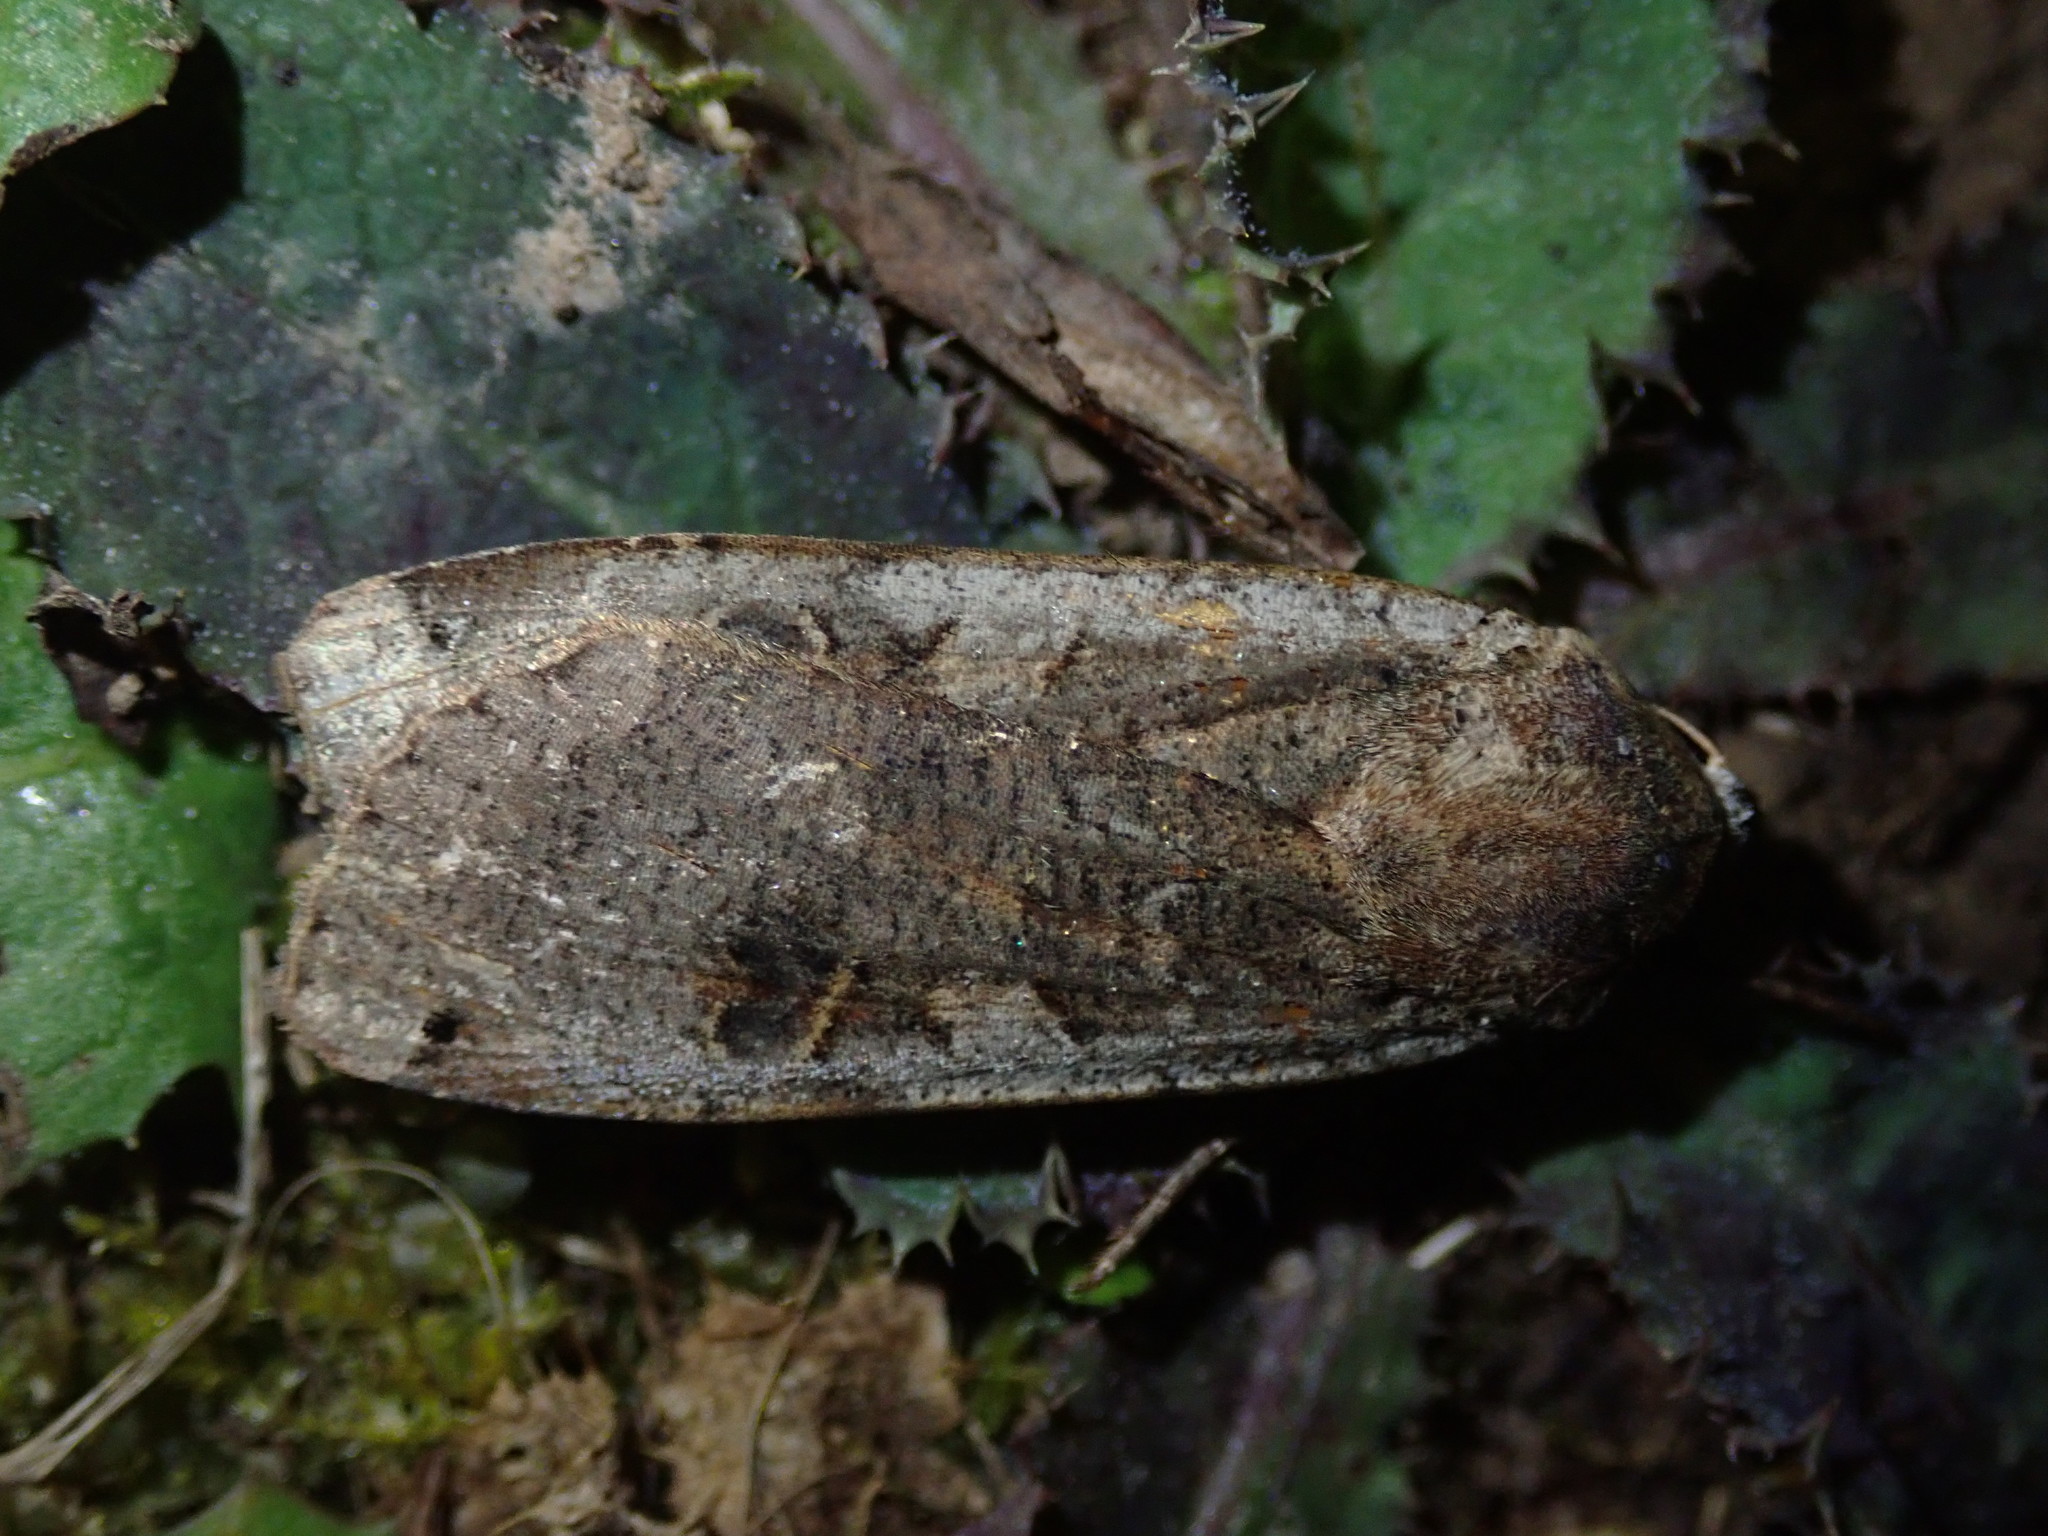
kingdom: Animalia
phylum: Arthropoda
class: Insecta
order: Lepidoptera
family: Noctuidae
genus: Noctua
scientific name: Noctua pronuba
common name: Large yellow underwing
